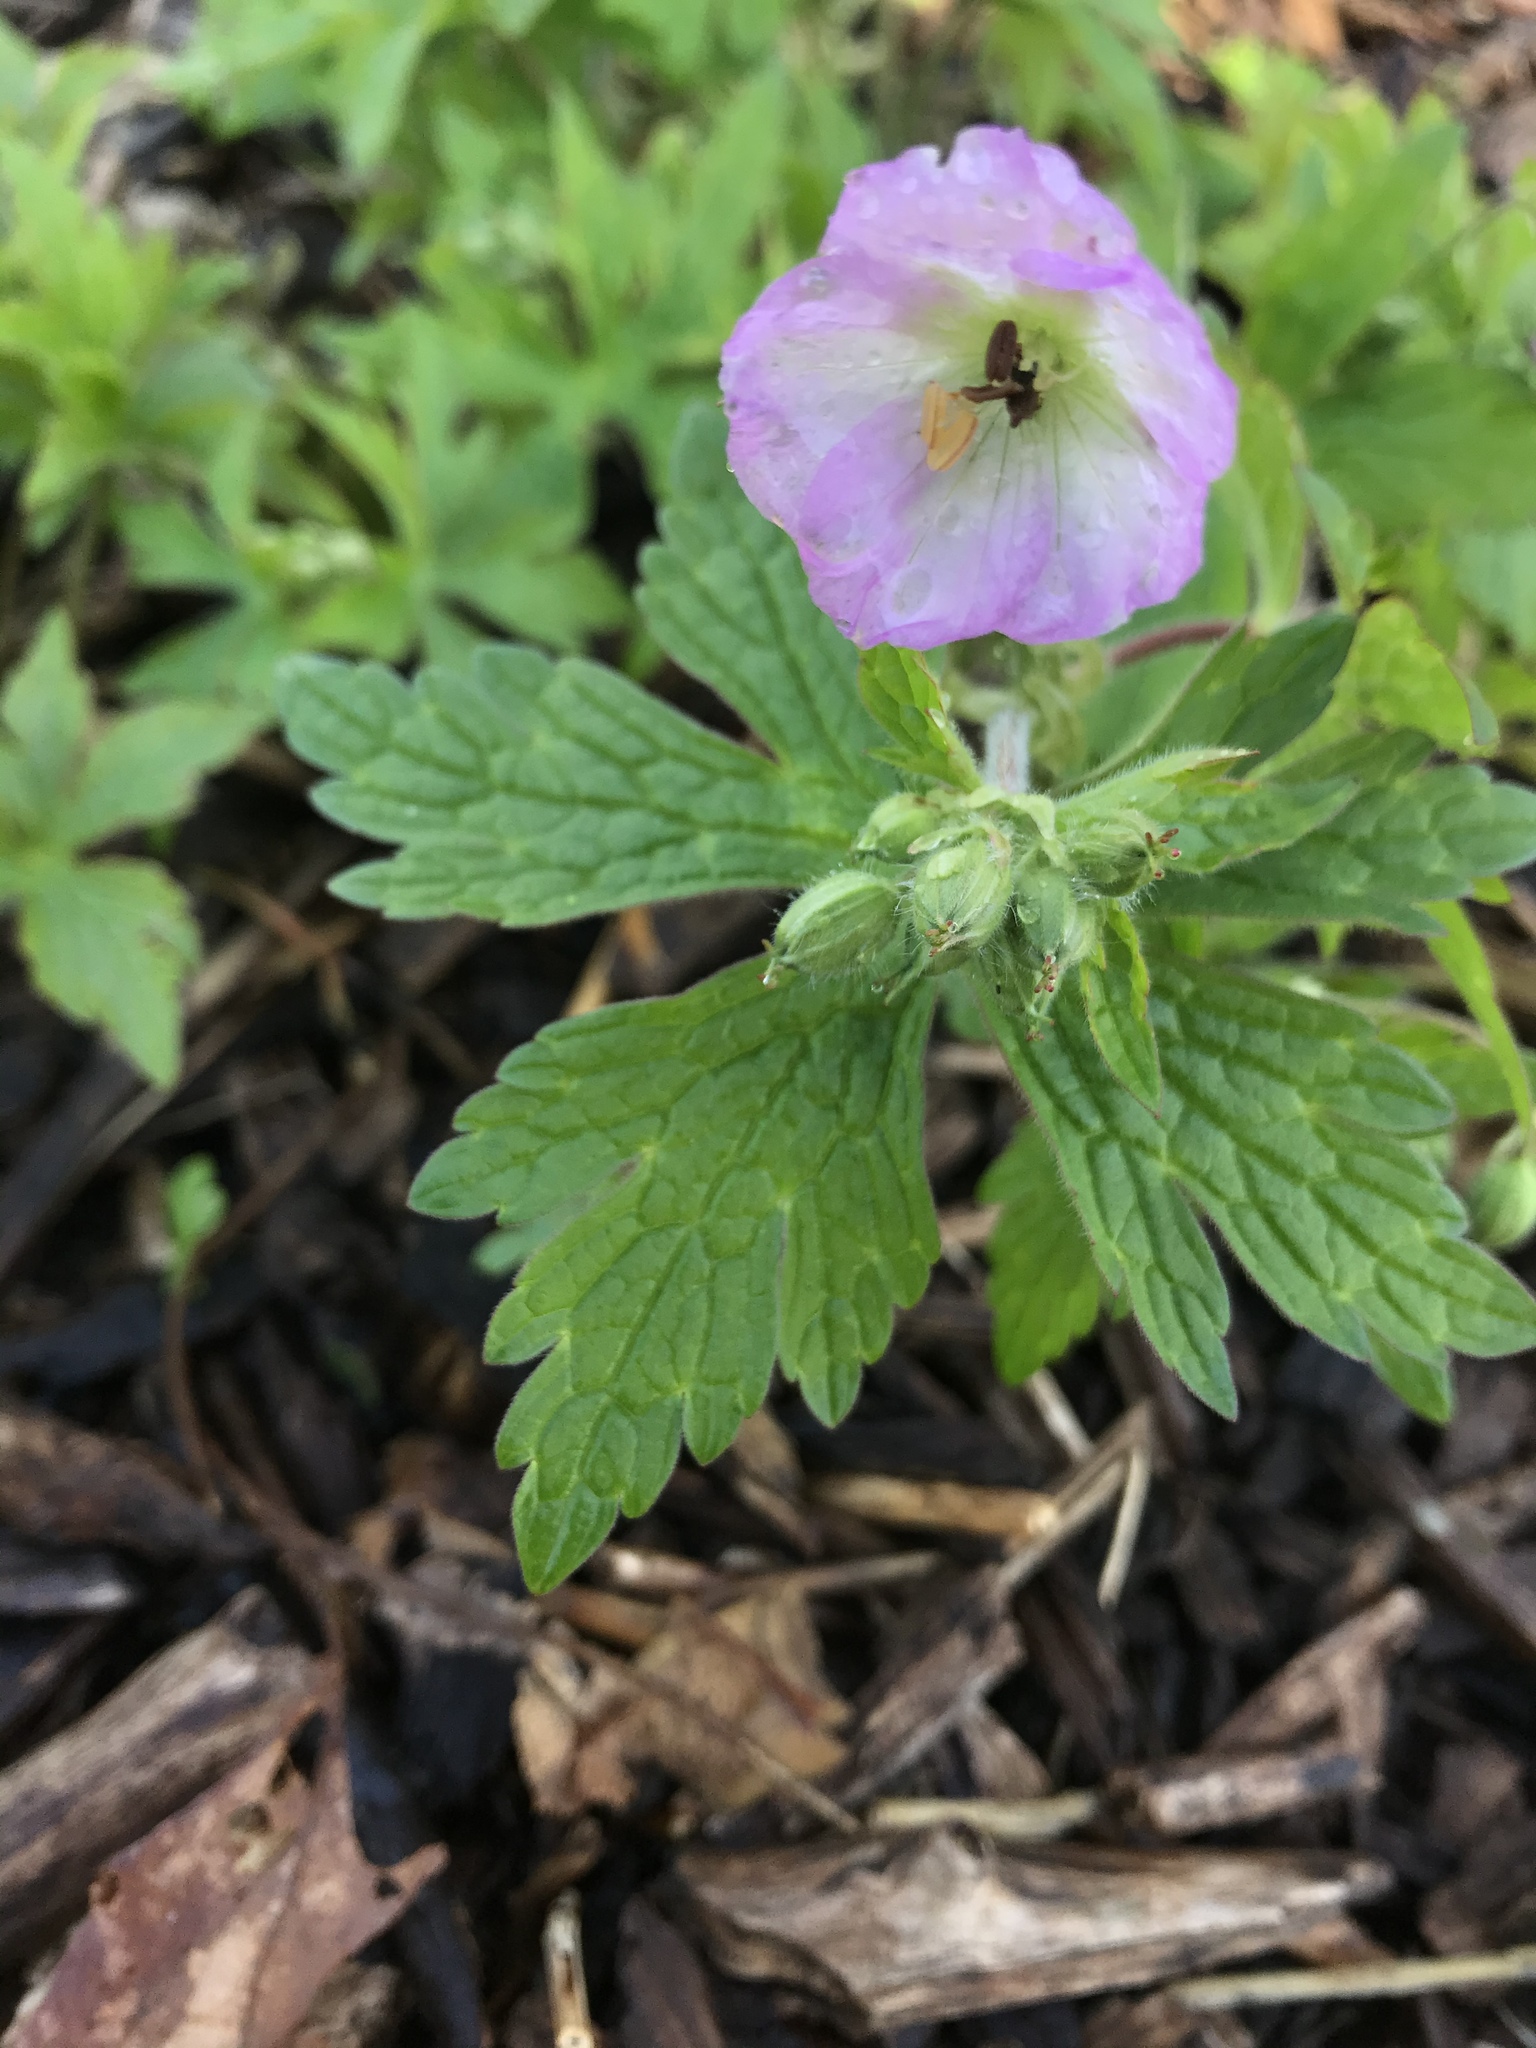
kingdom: Plantae
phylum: Tracheophyta
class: Magnoliopsida
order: Geraniales
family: Geraniaceae
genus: Geranium
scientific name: Geranium maculatum
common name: Spotted geranium
